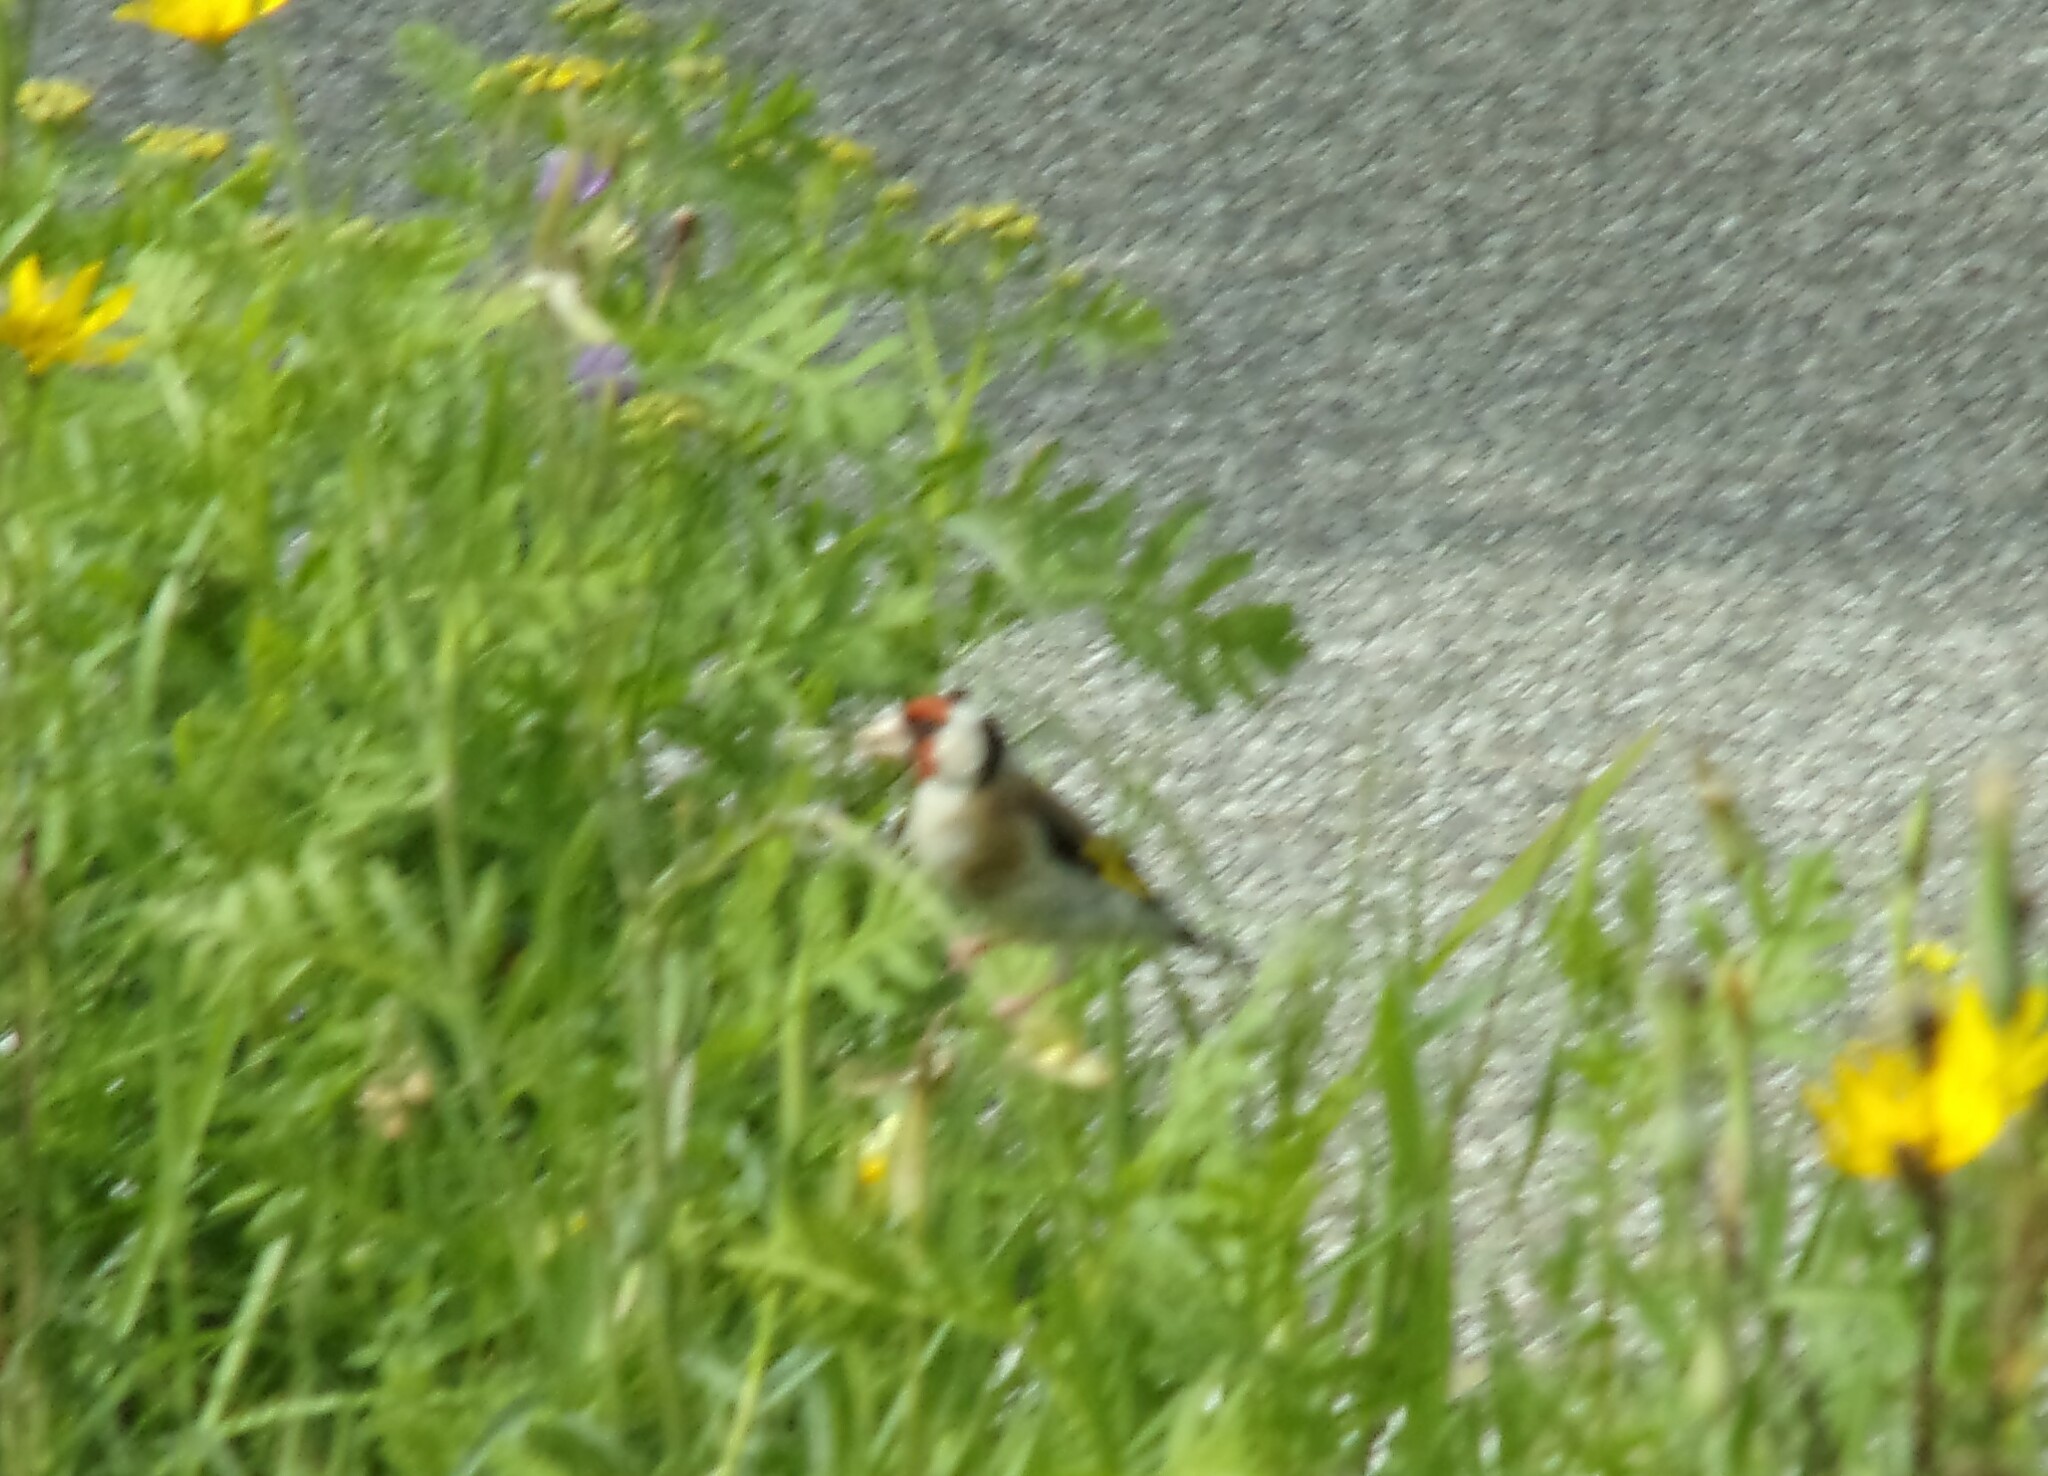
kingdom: Animalia
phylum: Chordata
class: Aves
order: Passeriformes
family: Fringillidae
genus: Carduelis
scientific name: Carduelis carduelis
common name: European goldfinch
